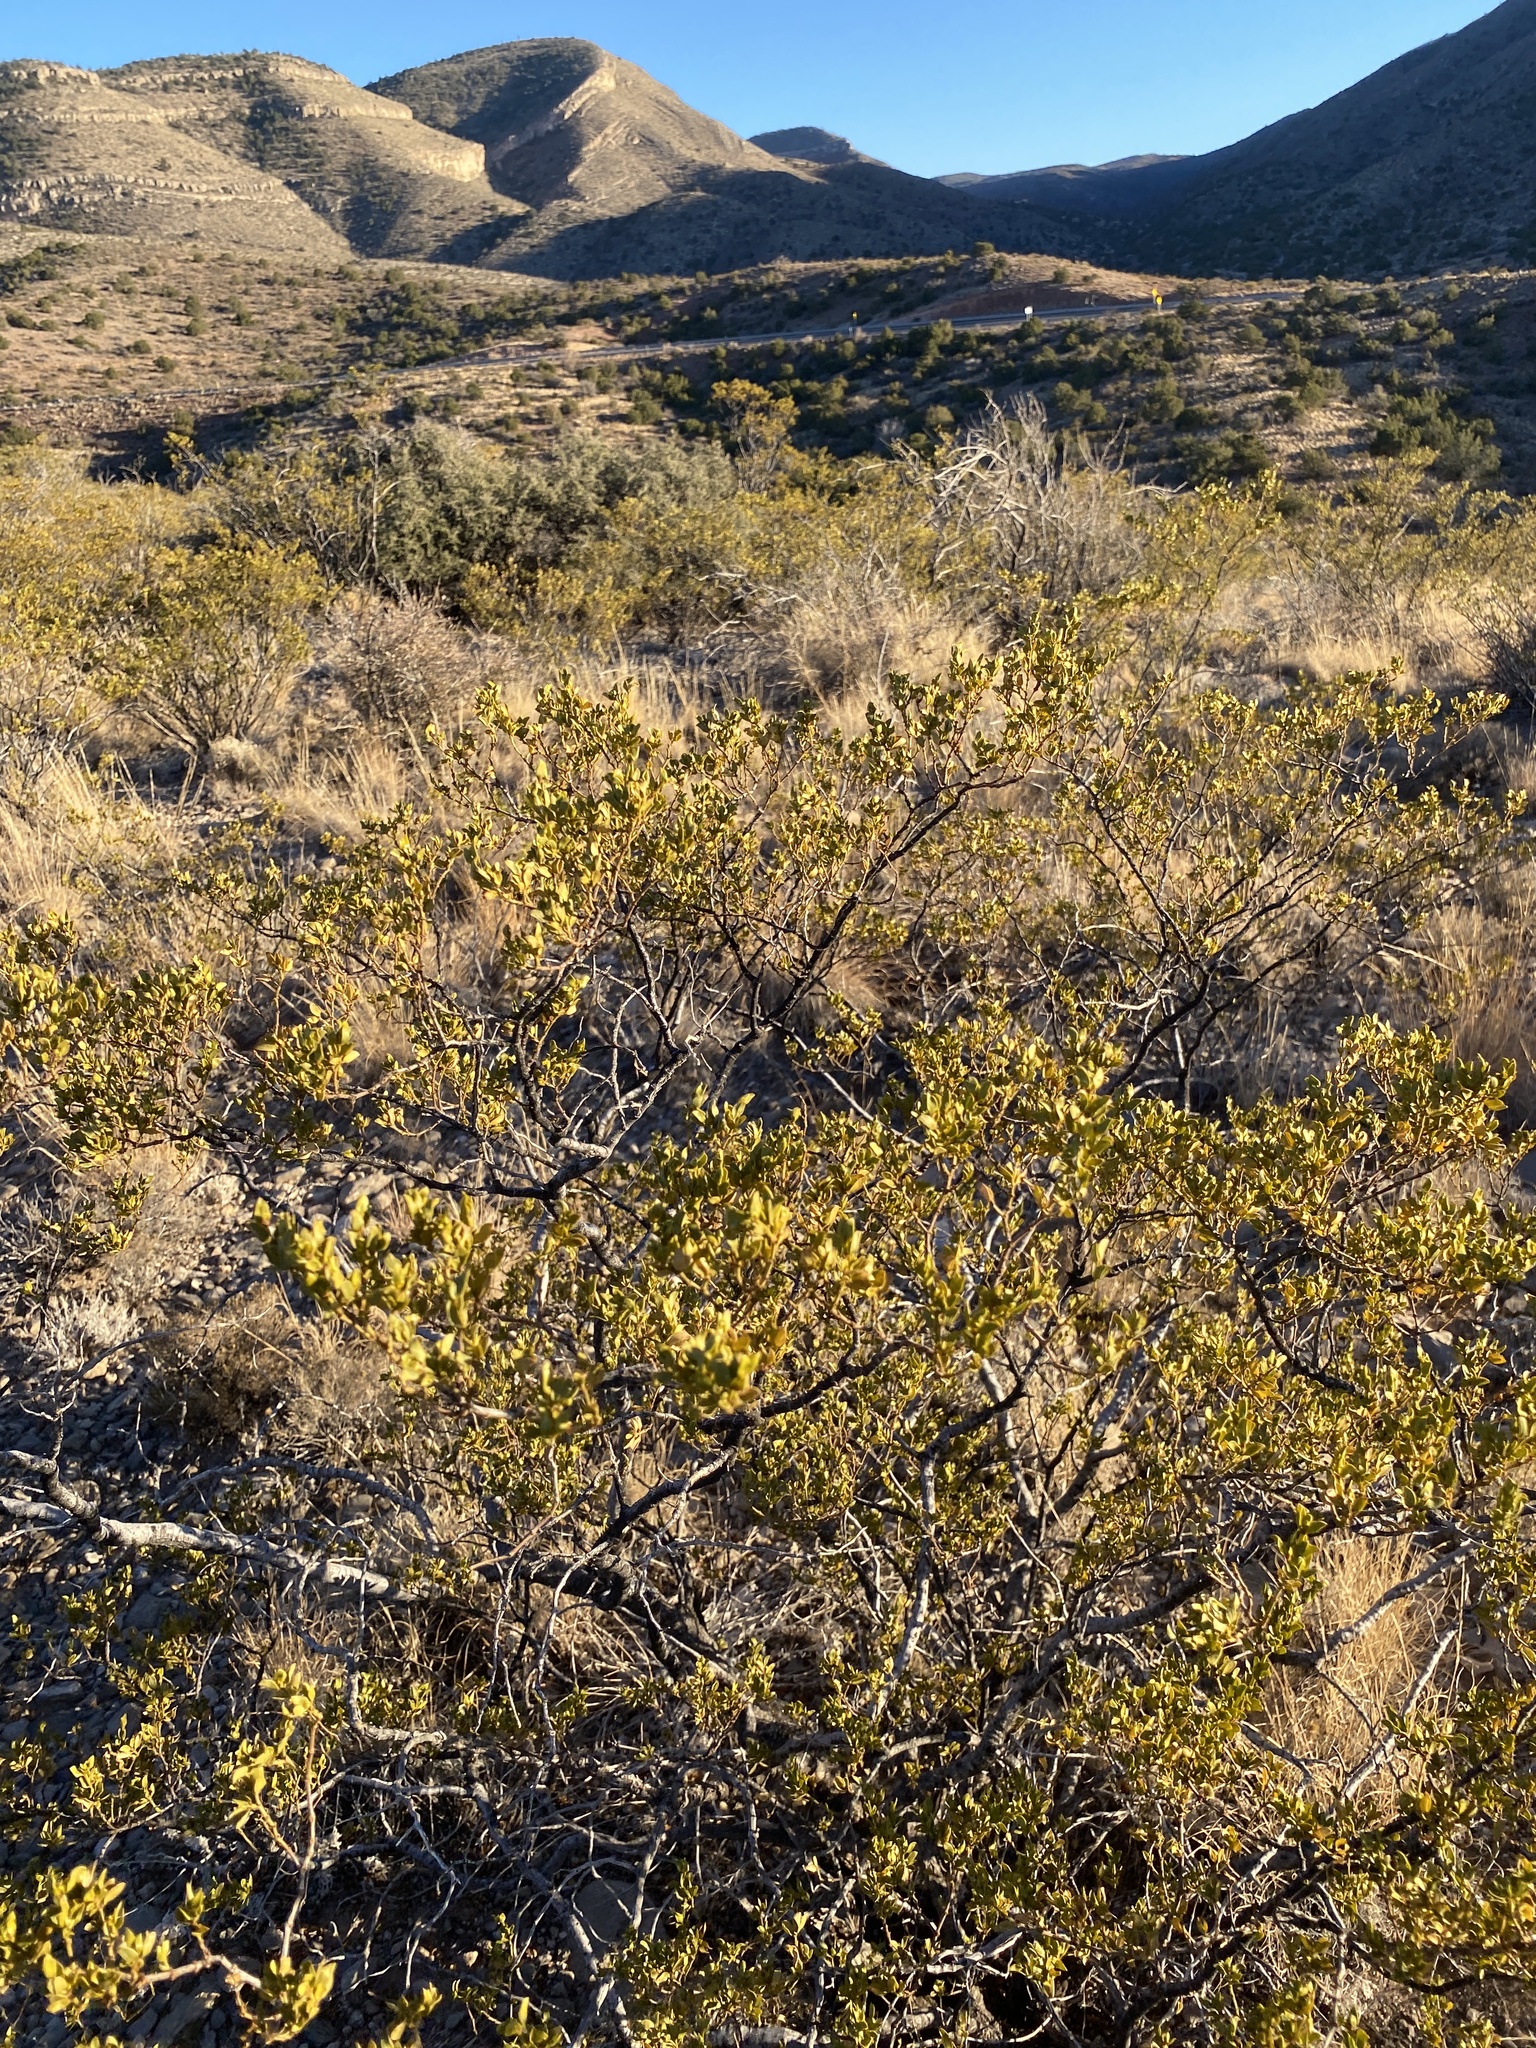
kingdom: Plantae
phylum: Tracheophyta
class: Magnoliopsida
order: Zygophyllales
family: Zygophyllaceae
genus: Larrea
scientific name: Larrea tridentata
